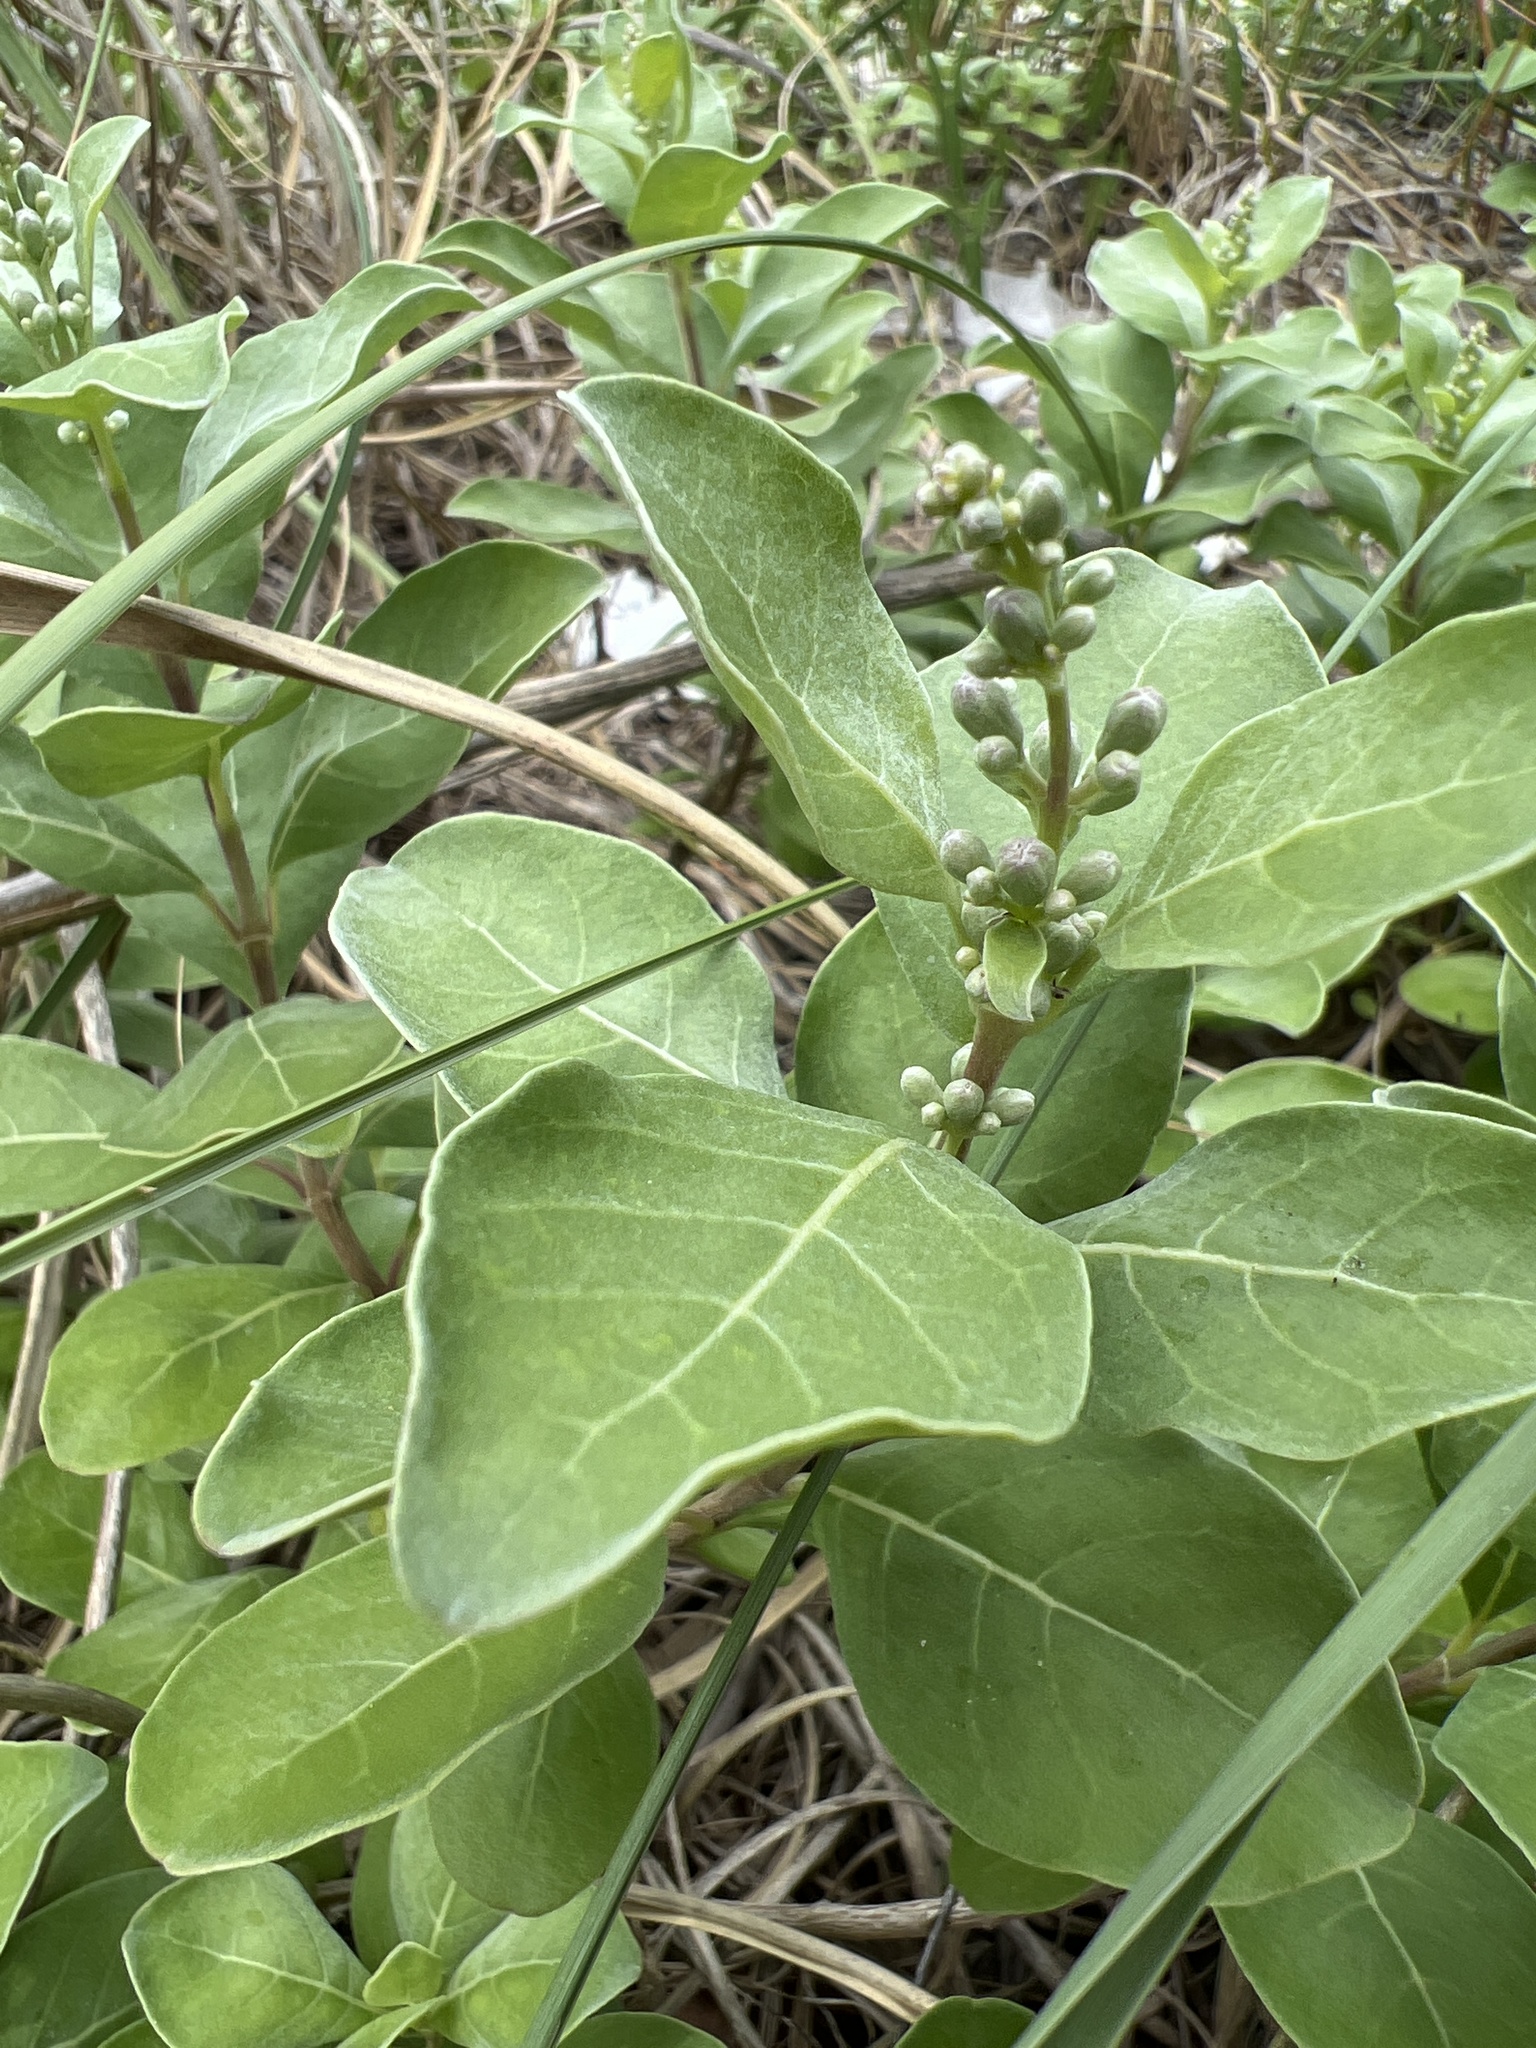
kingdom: Plantae
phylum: Tracheophyta
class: Magnoliopsida
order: Lamiales
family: Lamiaceae
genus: Vitex
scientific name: Vitex rotundifolia
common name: Beach vitex
